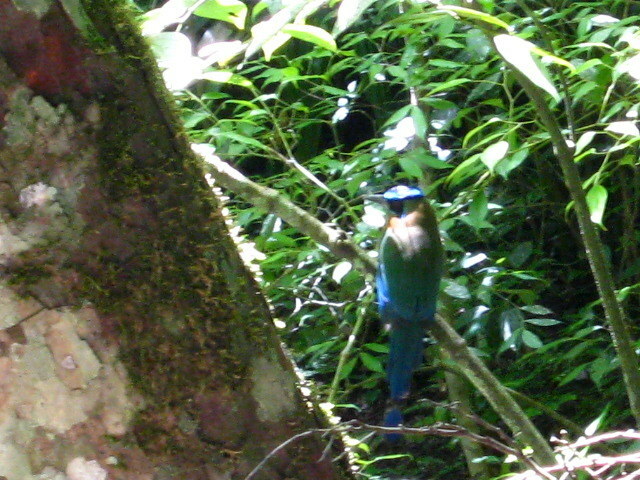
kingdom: Animalia
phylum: Chordata
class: Aves
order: Coraciiformes
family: Momotidae
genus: Momotus
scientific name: Momotus lessonii
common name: Lesson's motmot
